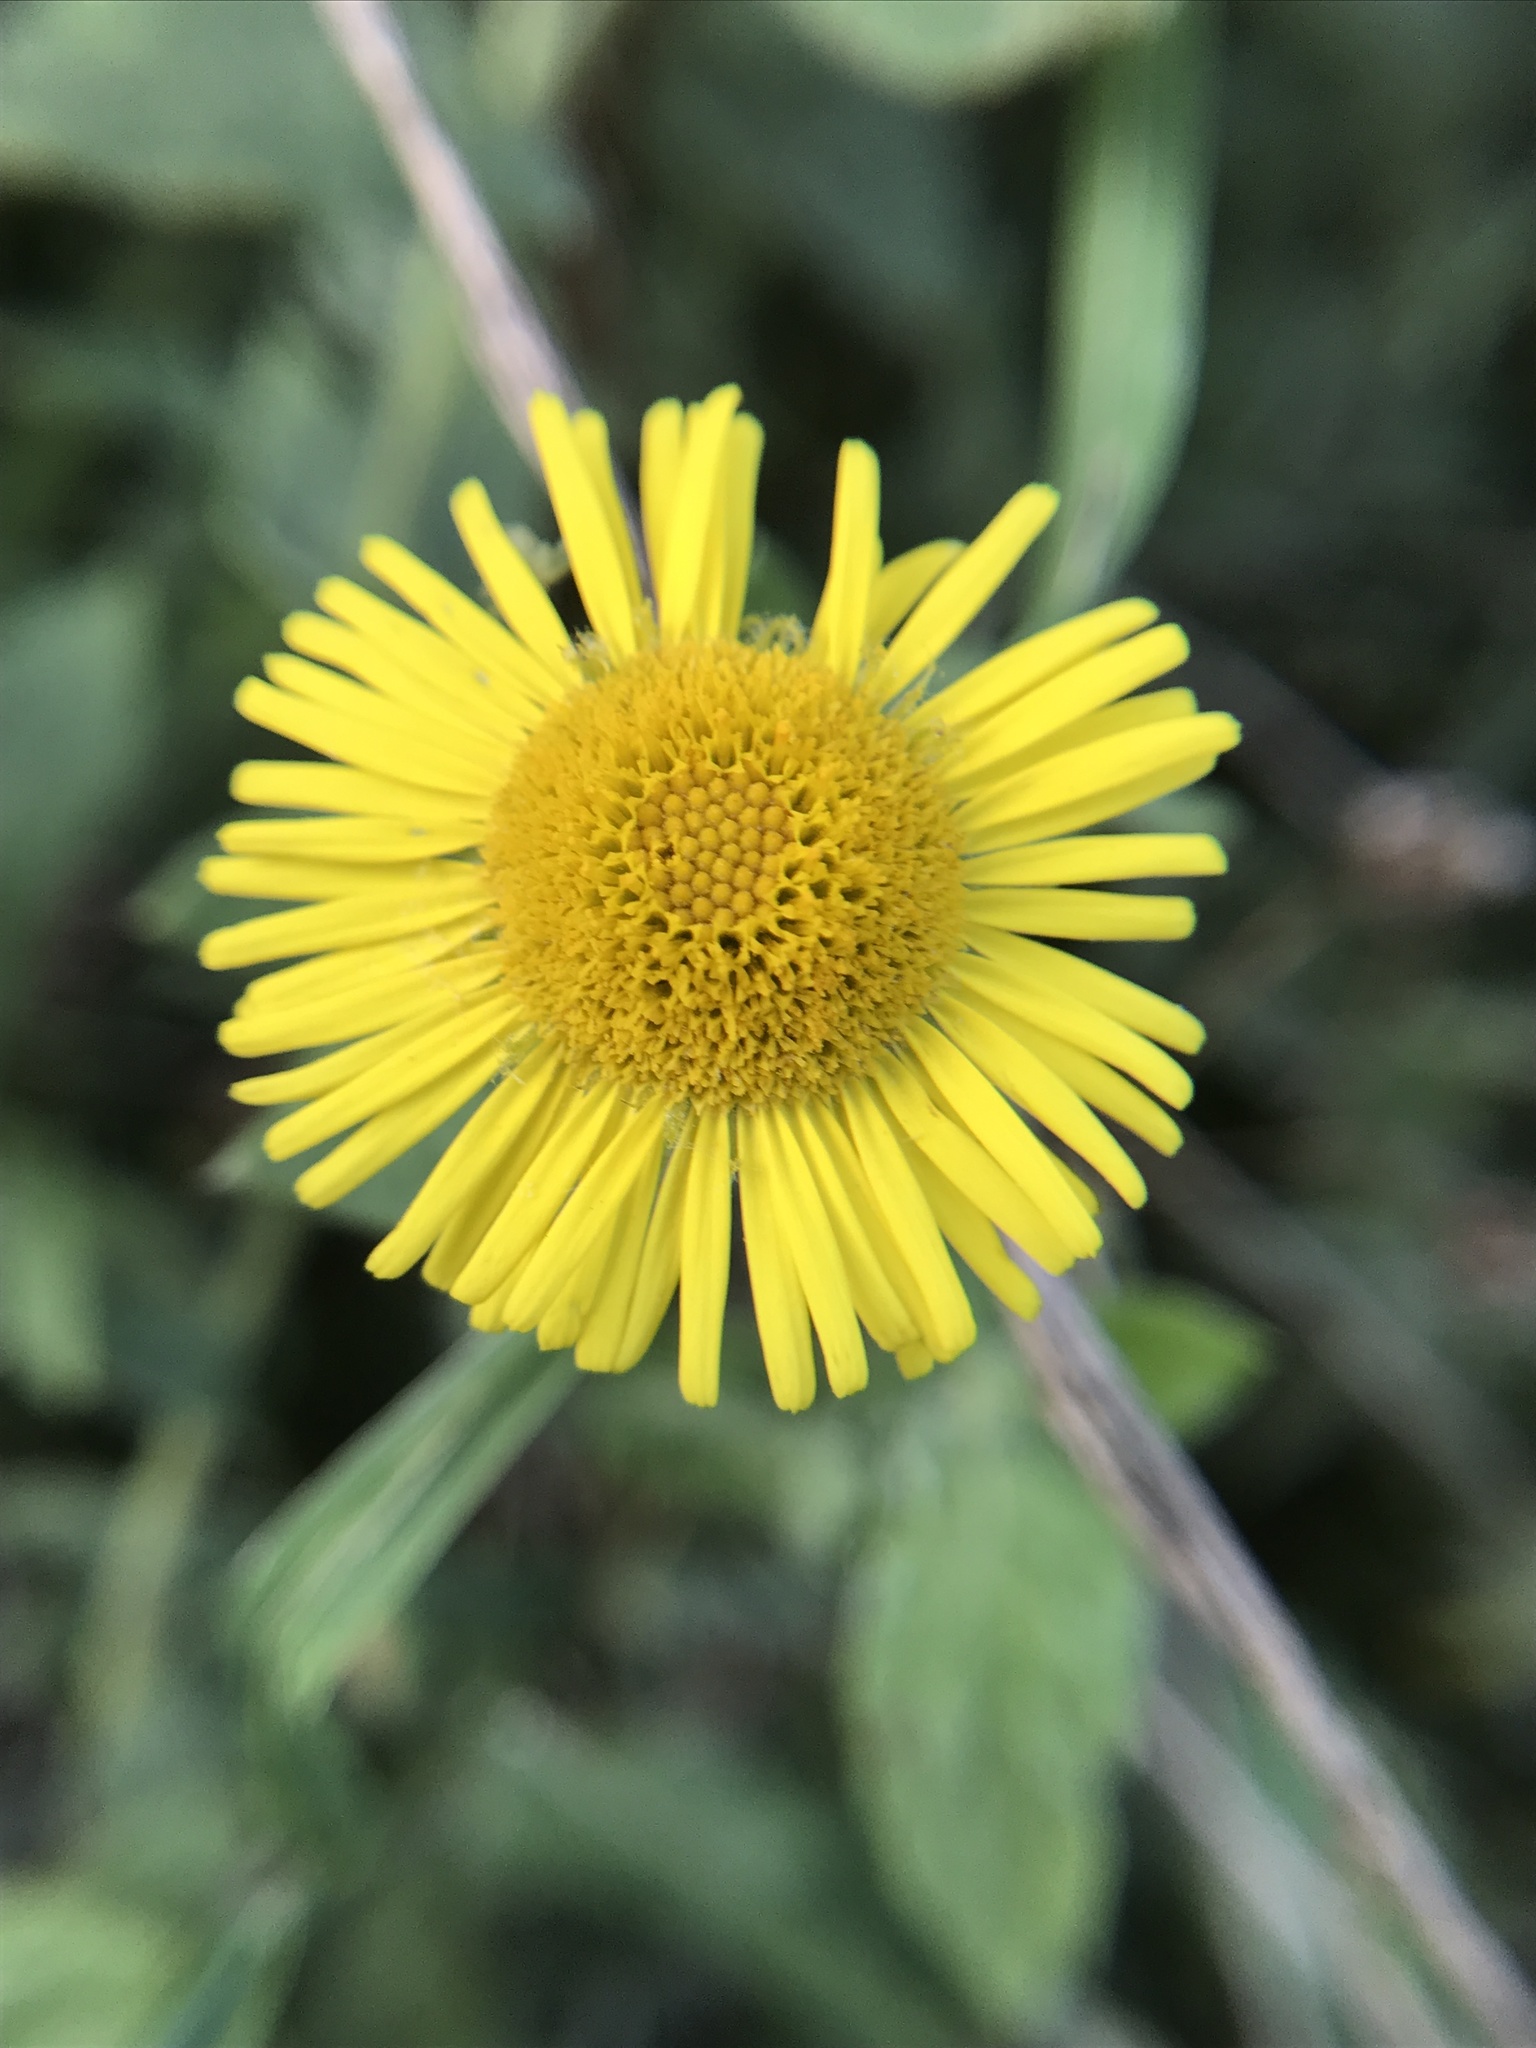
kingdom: Plantae
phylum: Tracheophyta
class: Magnoliopsida
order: Asterales
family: Asteraceae
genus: Pulicaria
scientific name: Pulicaria dysenterica
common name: Common fleabane
